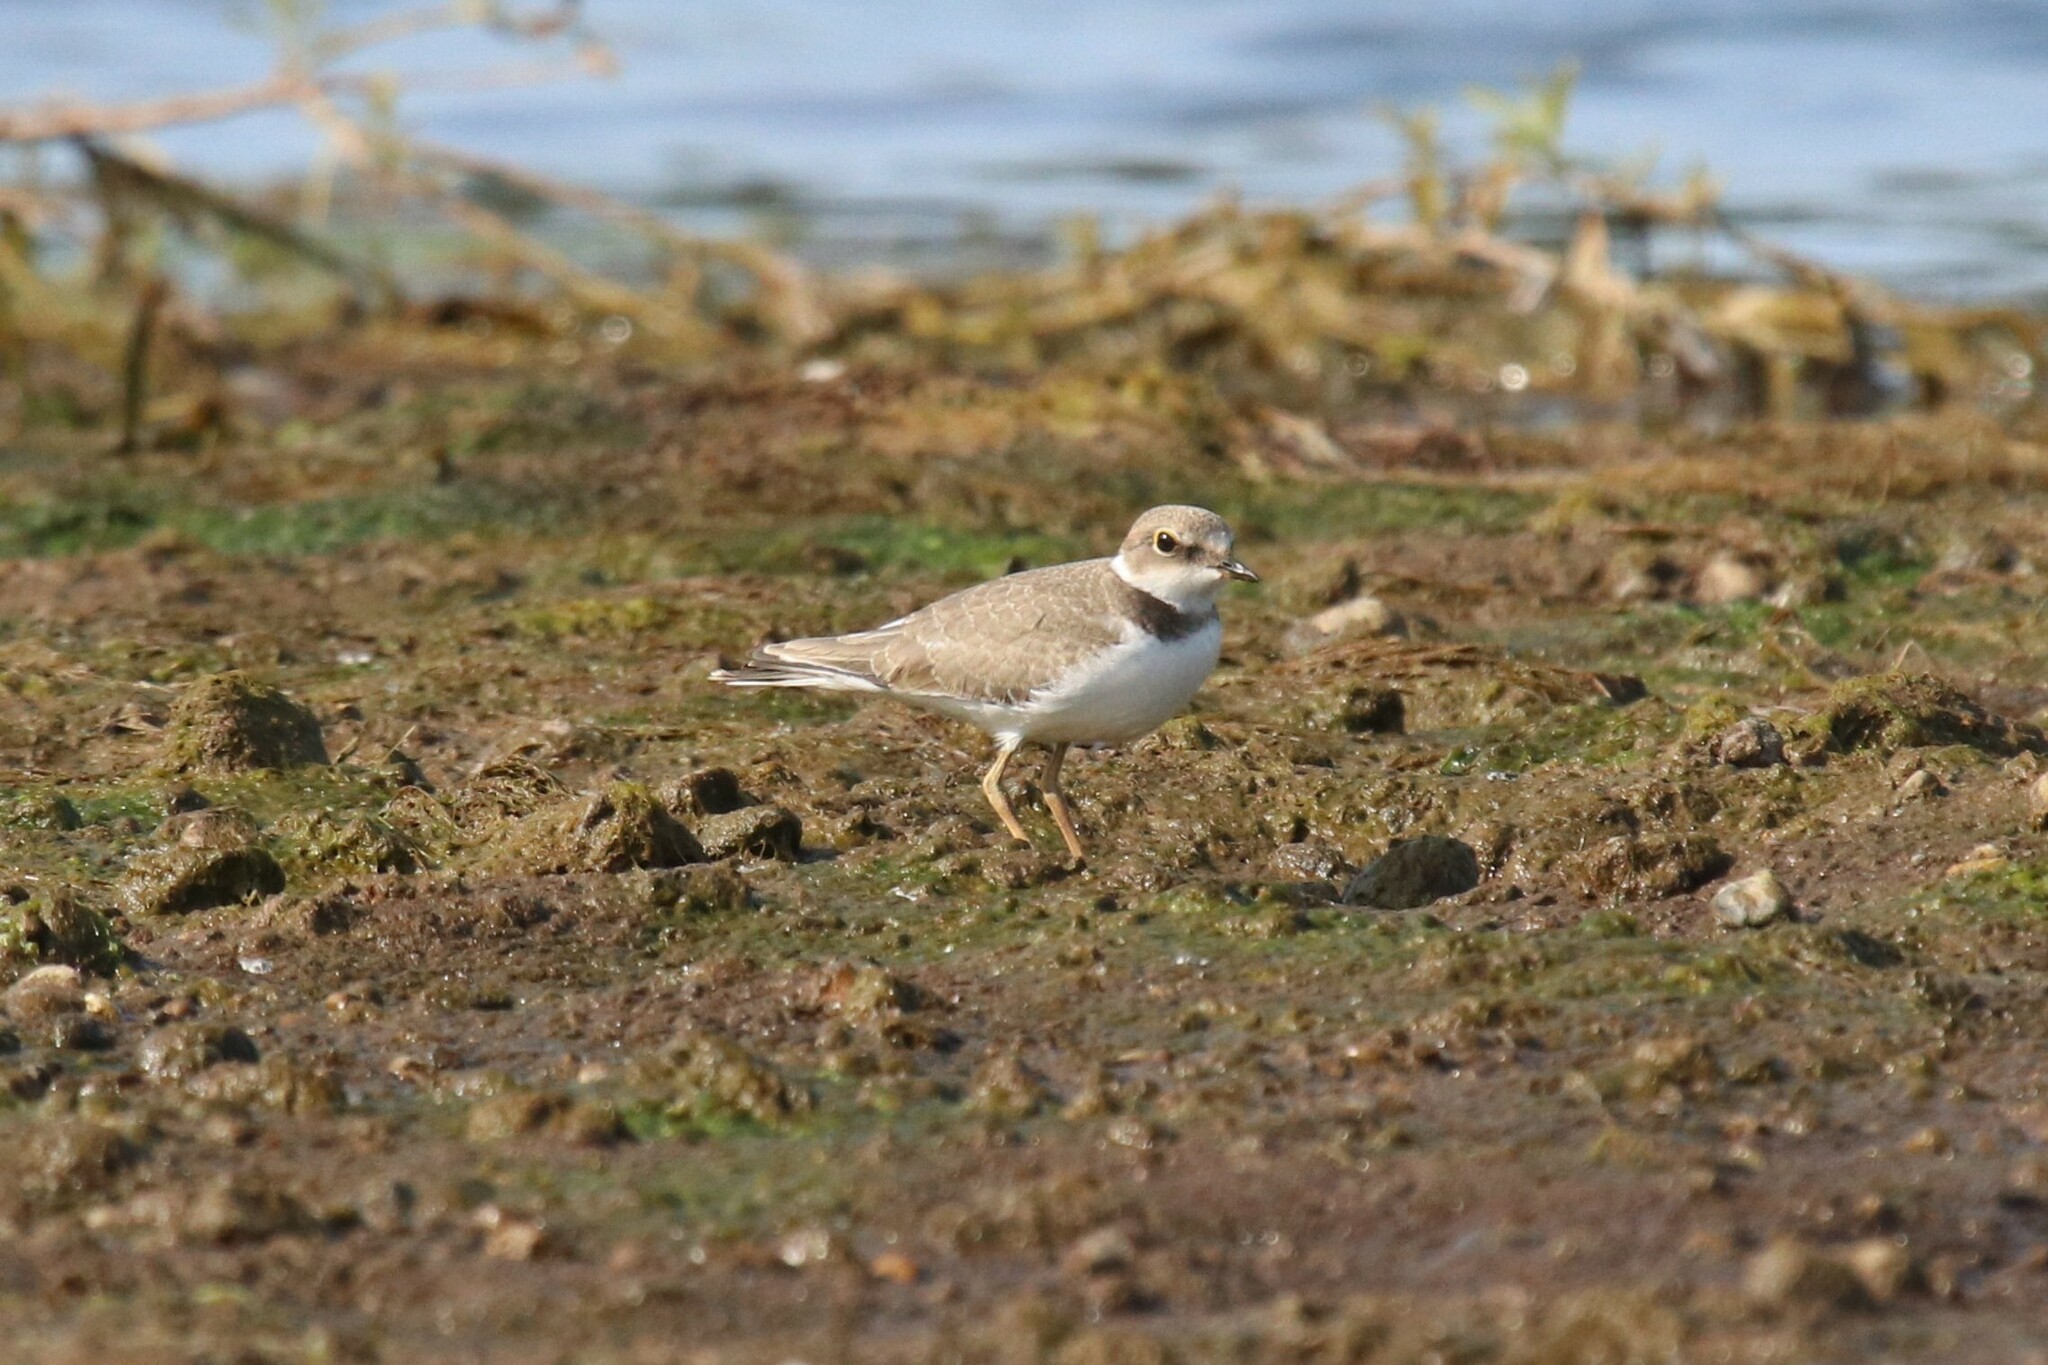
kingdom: Animalia
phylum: Chordata
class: Aves
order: Charadriiformes
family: Charadriidae
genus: Charadrius
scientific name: Charadrius dubius
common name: Little ringed plover
